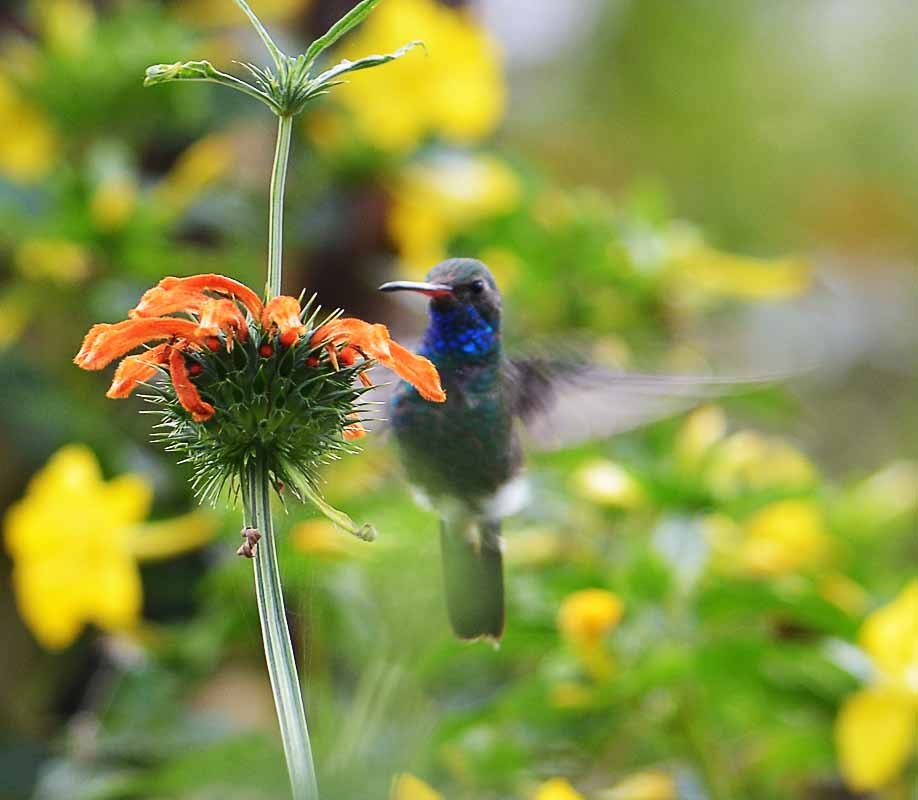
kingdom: Animalia
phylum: Chordata
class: Aves
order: Apodiformes
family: Trochilidae
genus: Cynanthus
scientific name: Cynanthus latirostris
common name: Broad-billed hummingbird
